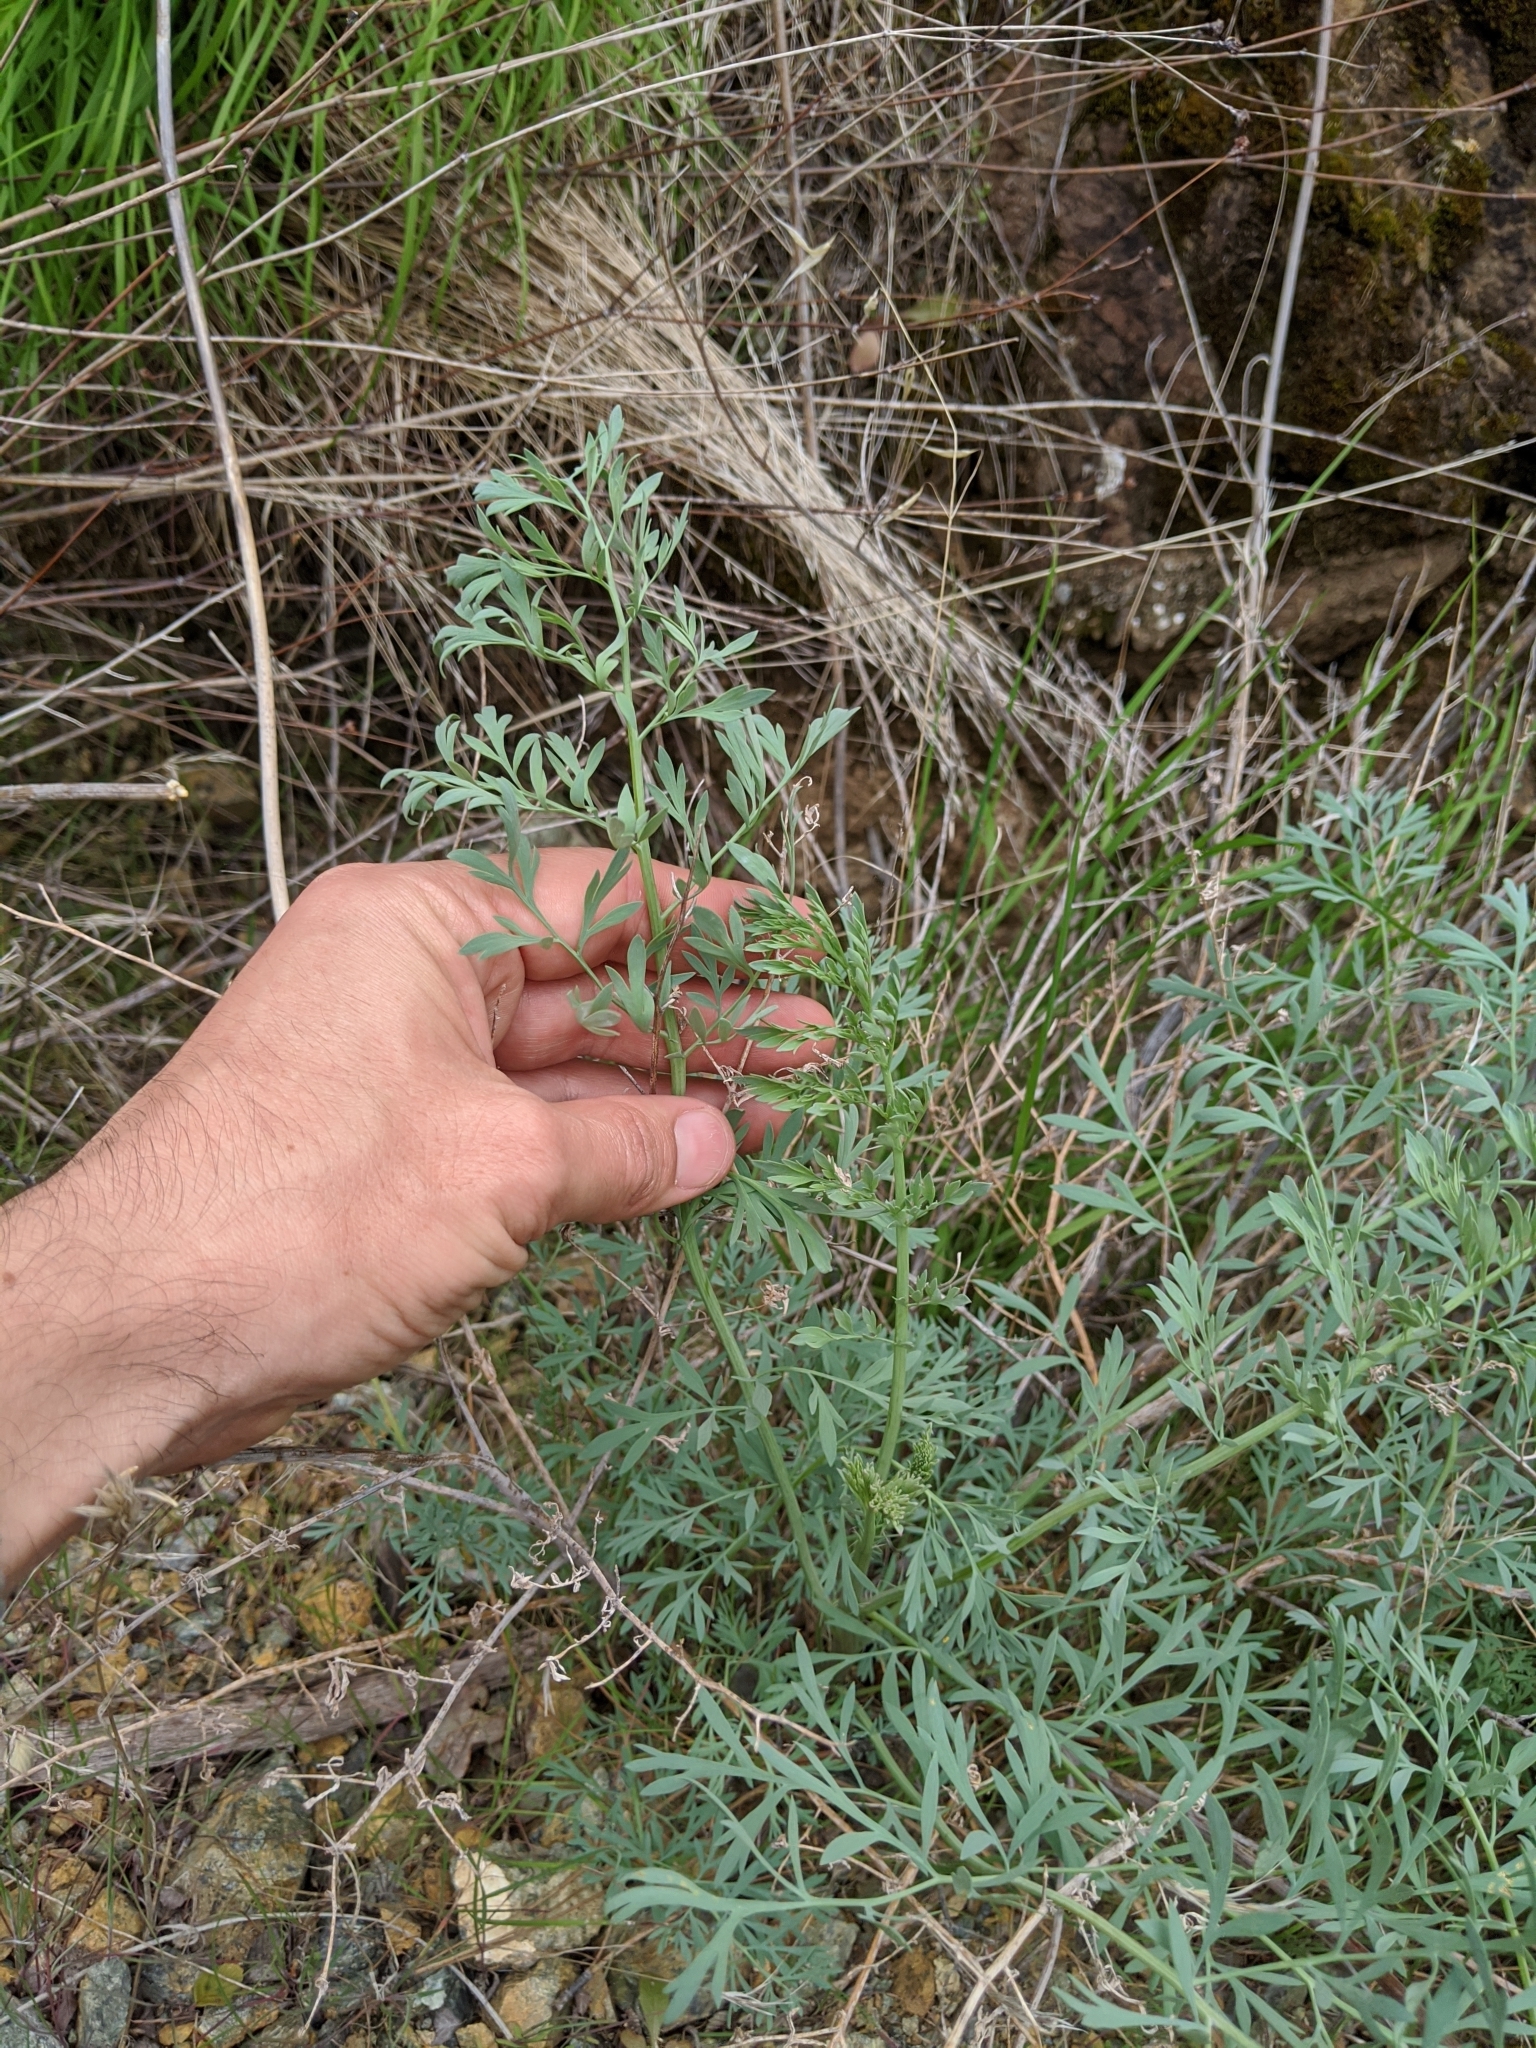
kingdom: Plantae
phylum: Tracheophyta
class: Magnoliopsida
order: Ranunculales
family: Papaveraceae
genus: Ehrendorferia
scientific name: Ehrendorferia chrysantha
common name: Golden eardrops
